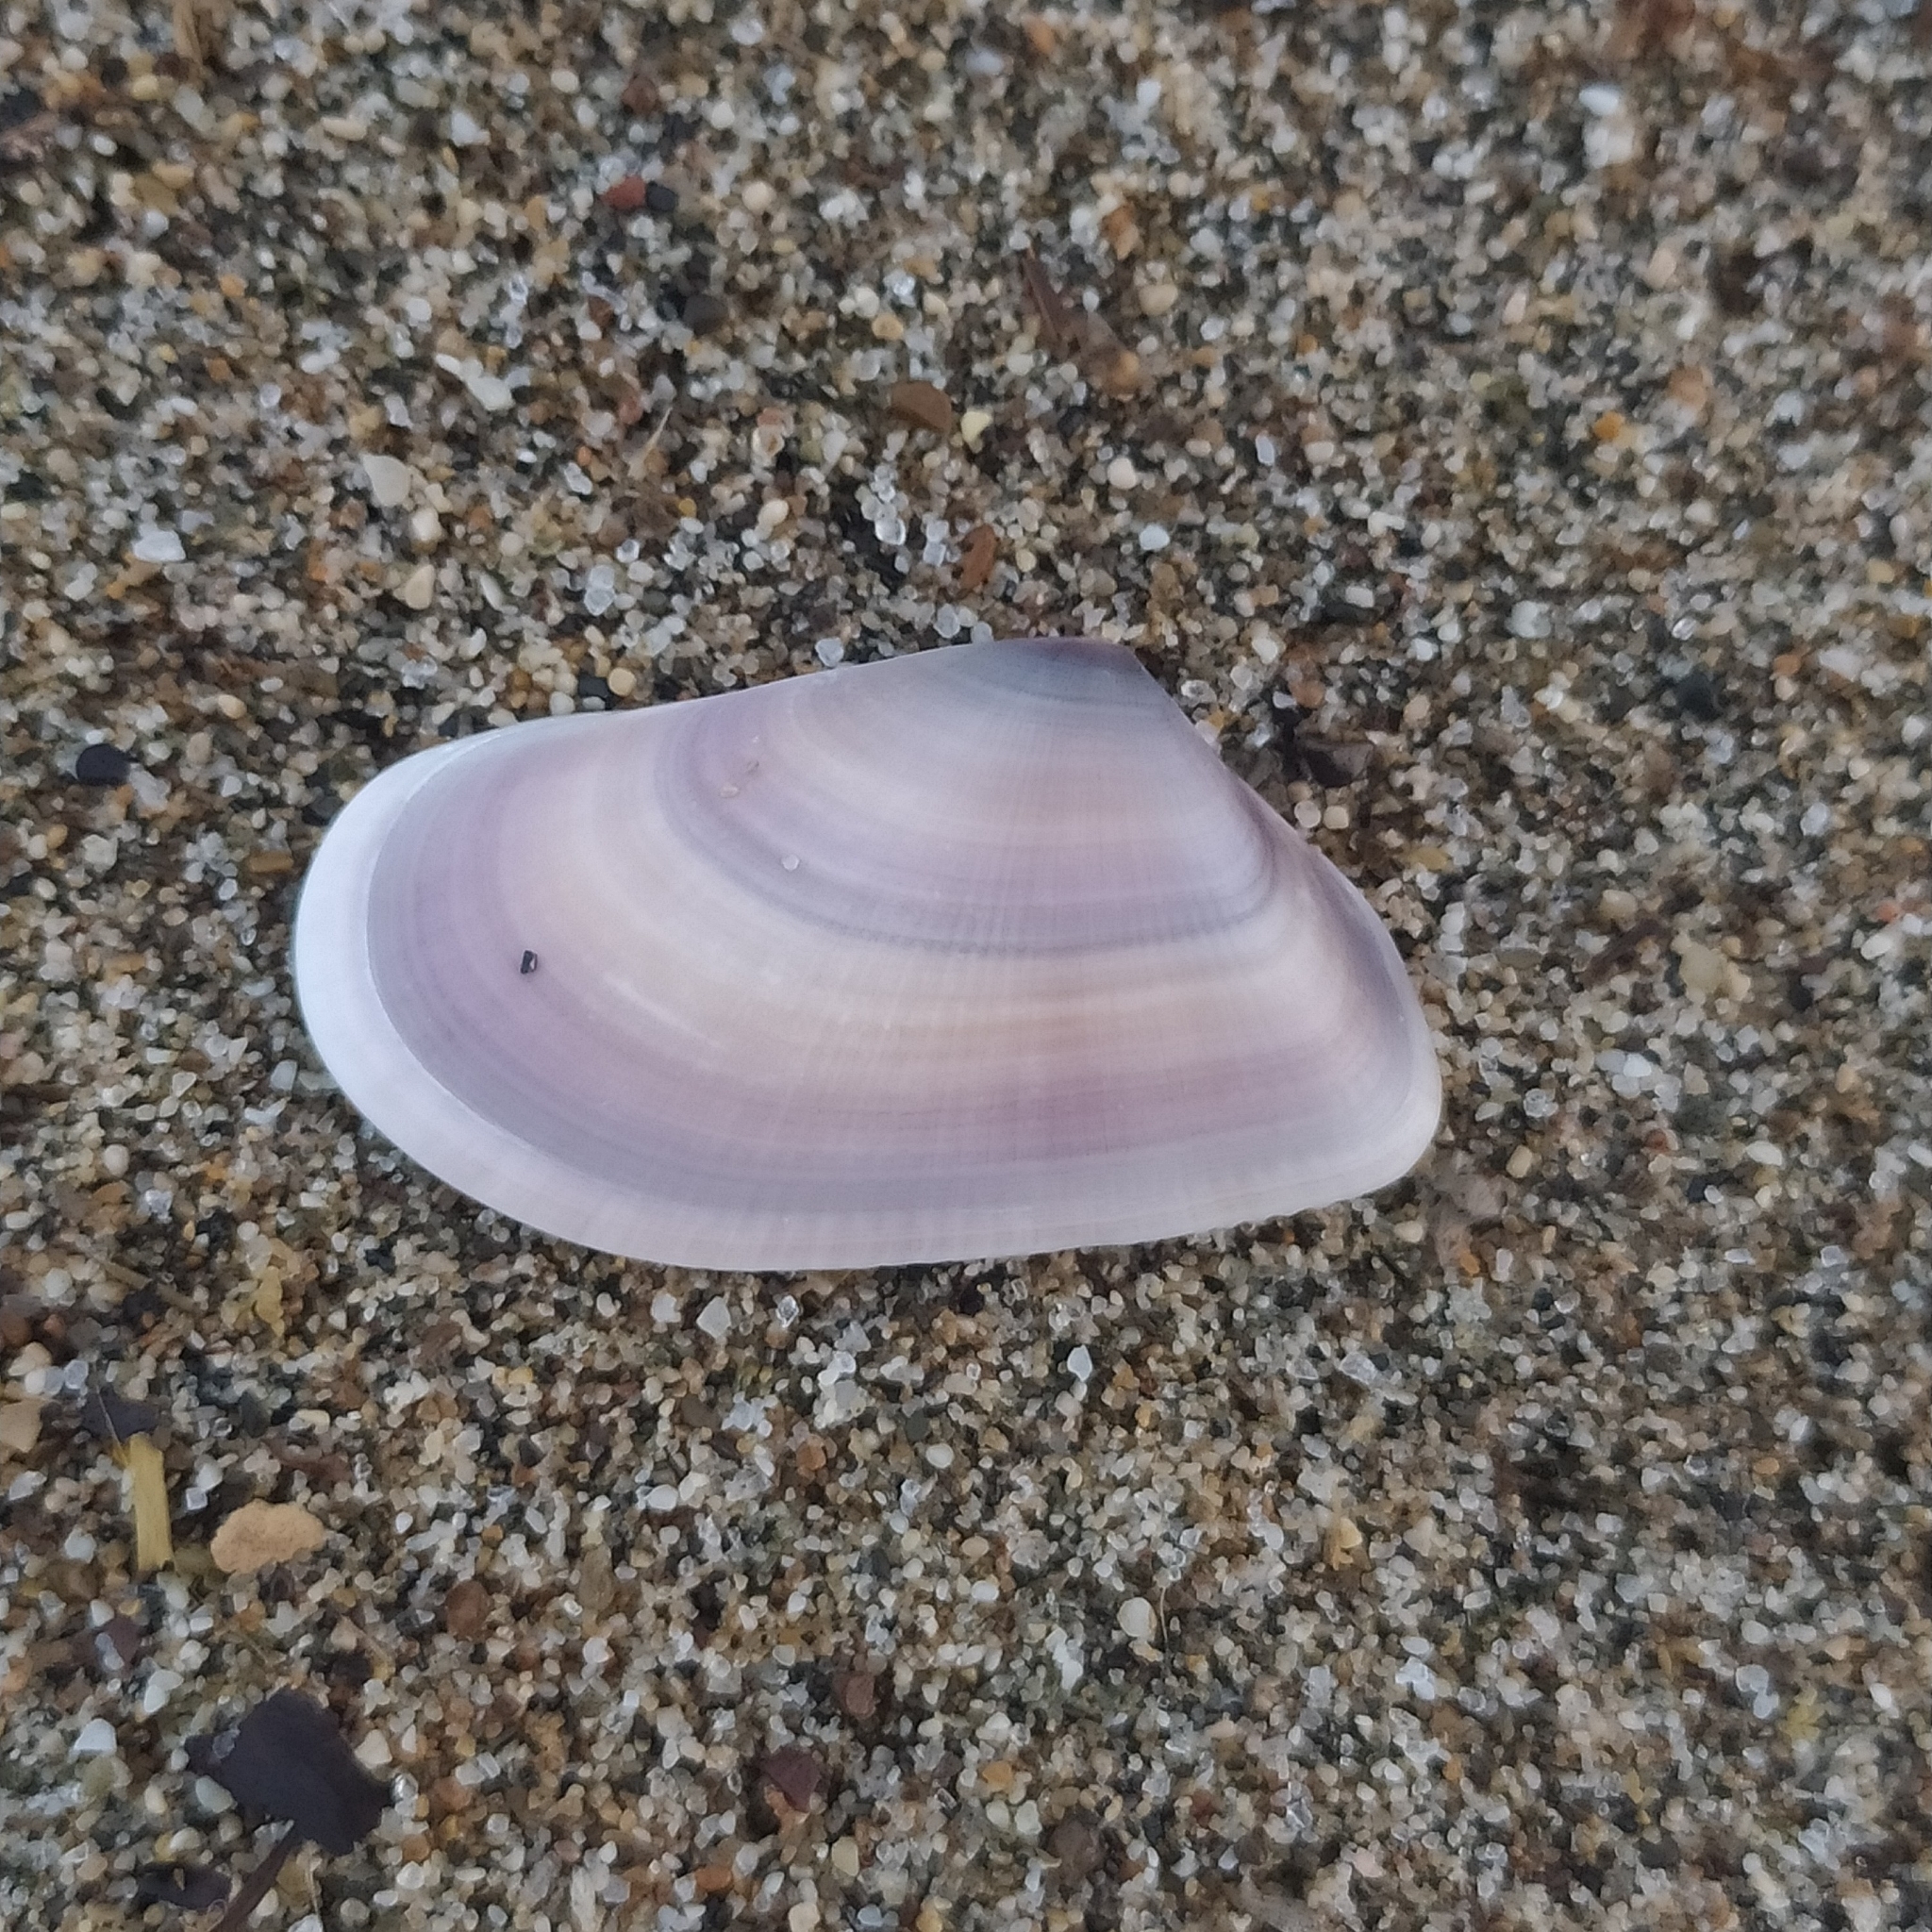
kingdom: Animalia
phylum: Mollusca
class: Bivalvia
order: Cardiida
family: Donacidae
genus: Donax
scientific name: Donax trunculus
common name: Truncate donax
